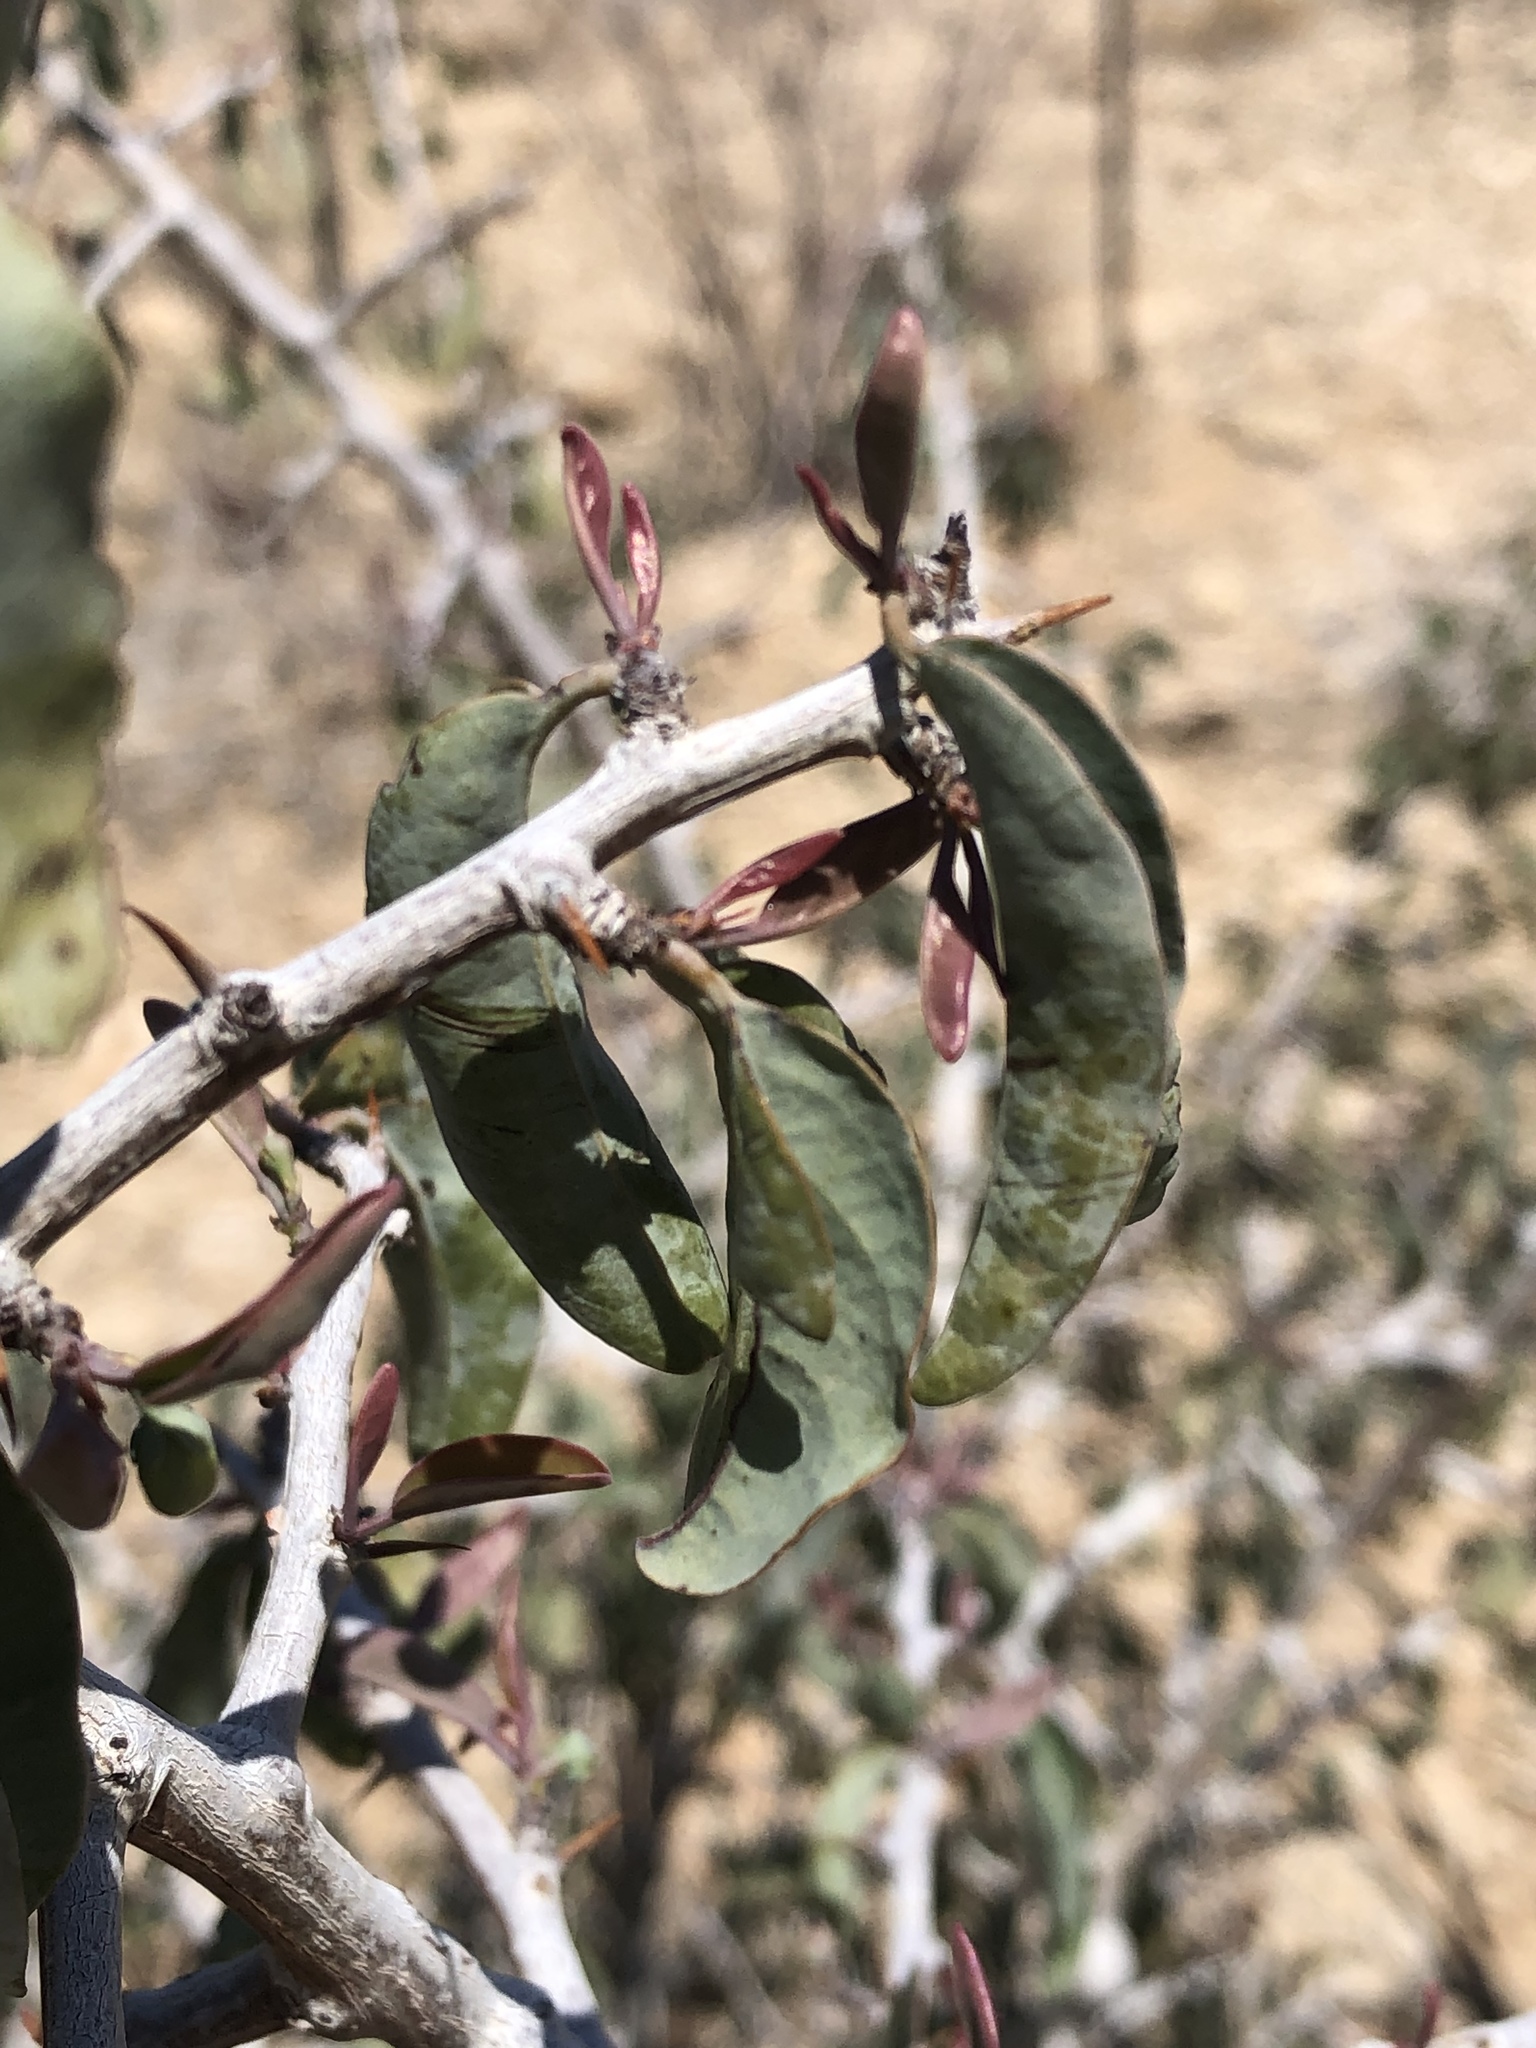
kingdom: Plantae
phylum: Tracheophyta
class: Magnoliopsida
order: Santalales
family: Ximeniaceae
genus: Ximenia
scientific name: Ximenia americana
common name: Tallowwood
